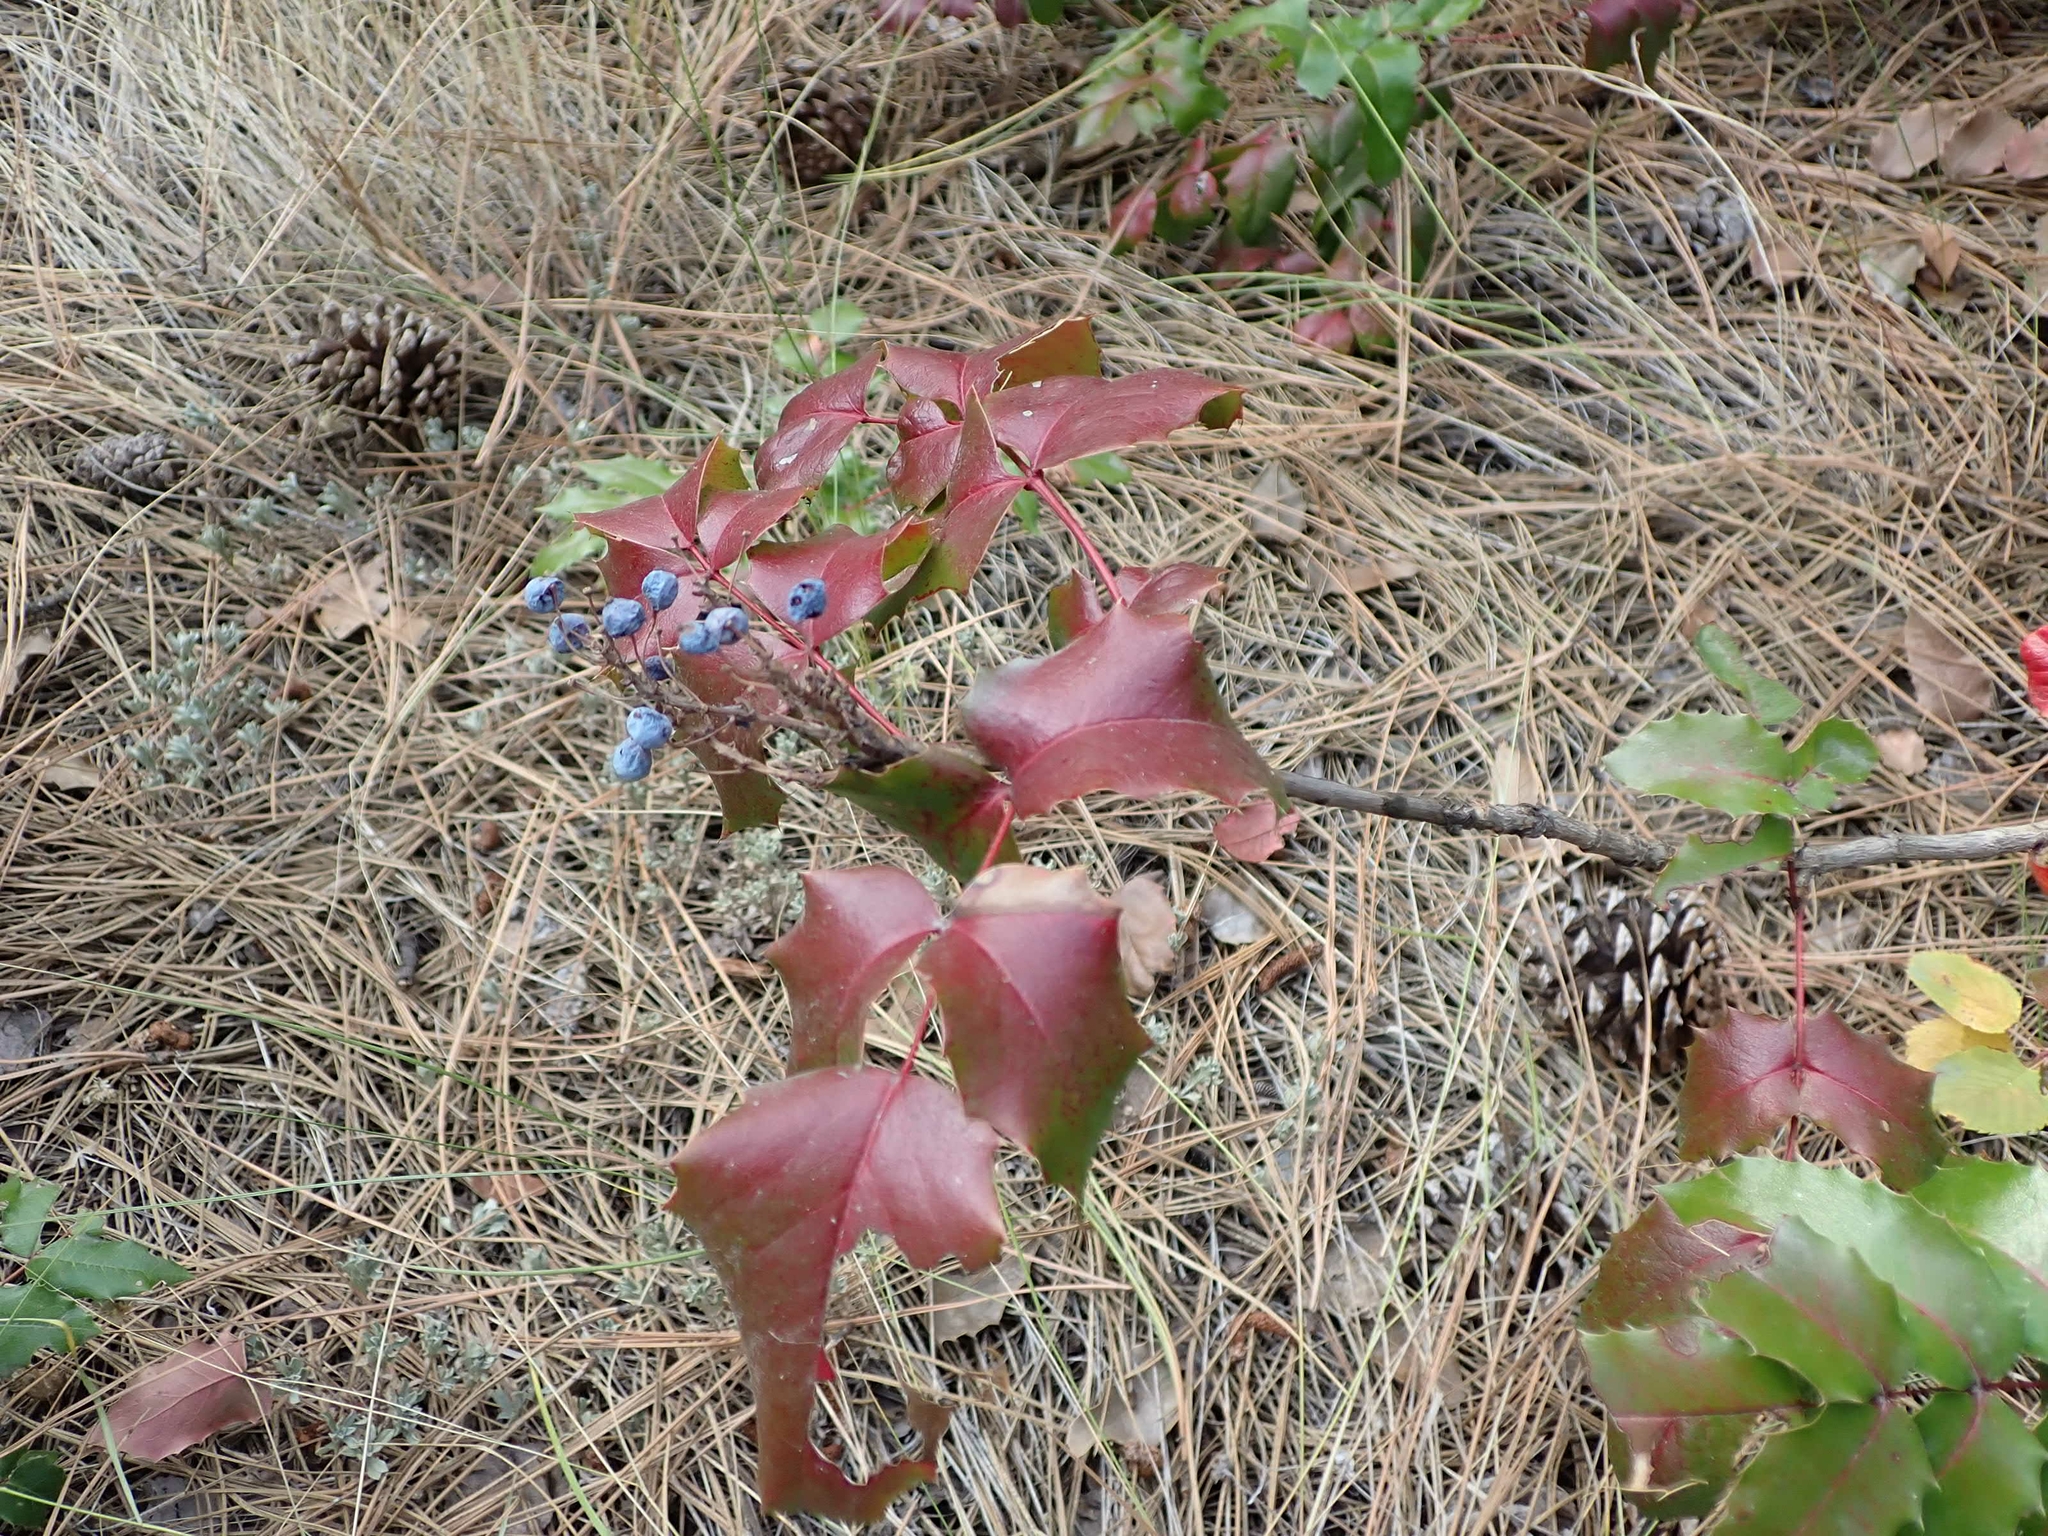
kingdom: Plantae
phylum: Tracheophyta
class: Magnoliopsida
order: Ranunculales
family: Berberidaceae
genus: Mahonia
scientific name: Mahonia aquifolium
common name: Oregon-grape
